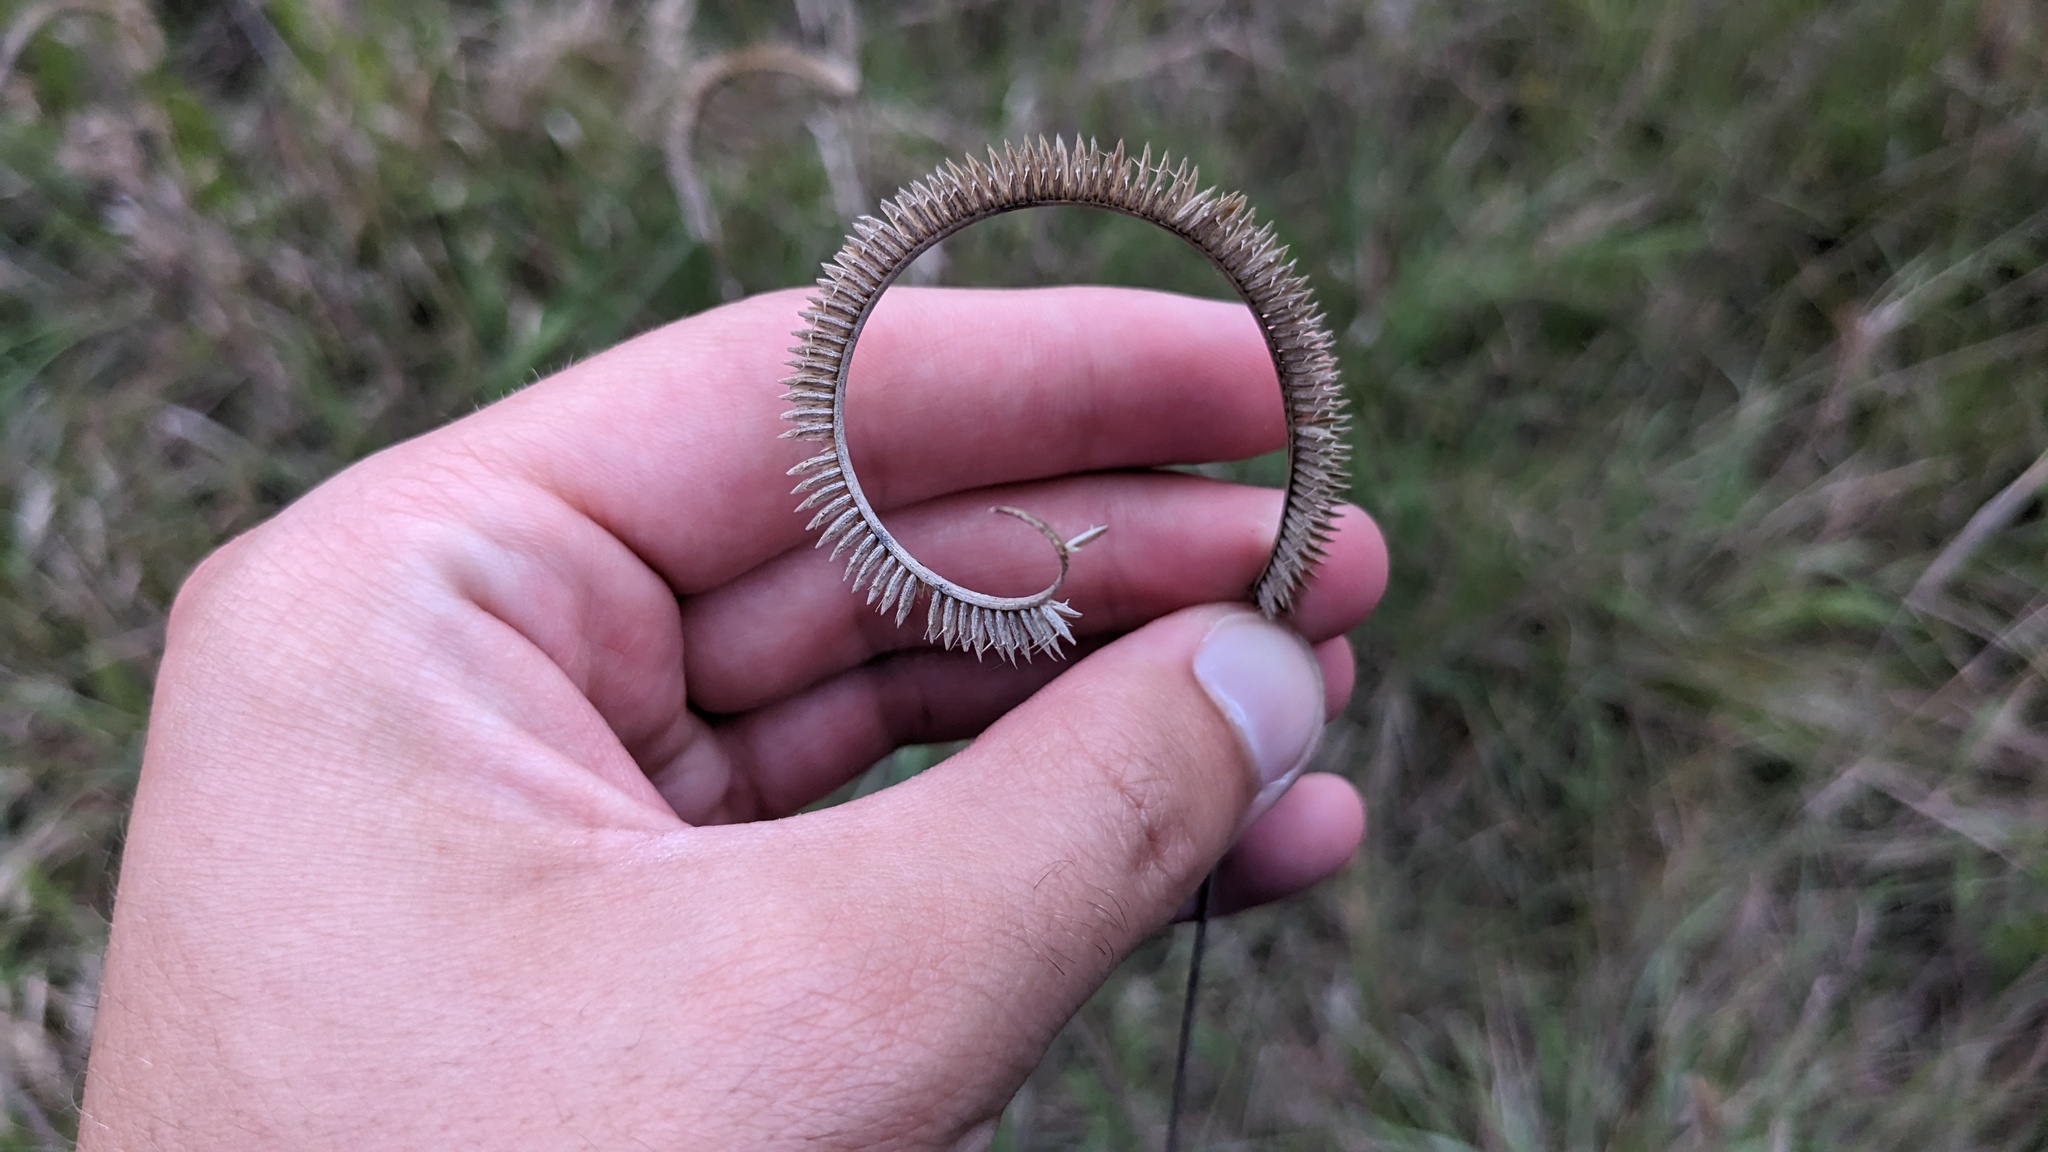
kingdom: Plantae
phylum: Tracheophyta
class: Liliopsida
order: Poales
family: Poaceae
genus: Ctenium
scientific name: Ctenium aromaticum
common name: Toothache grass
